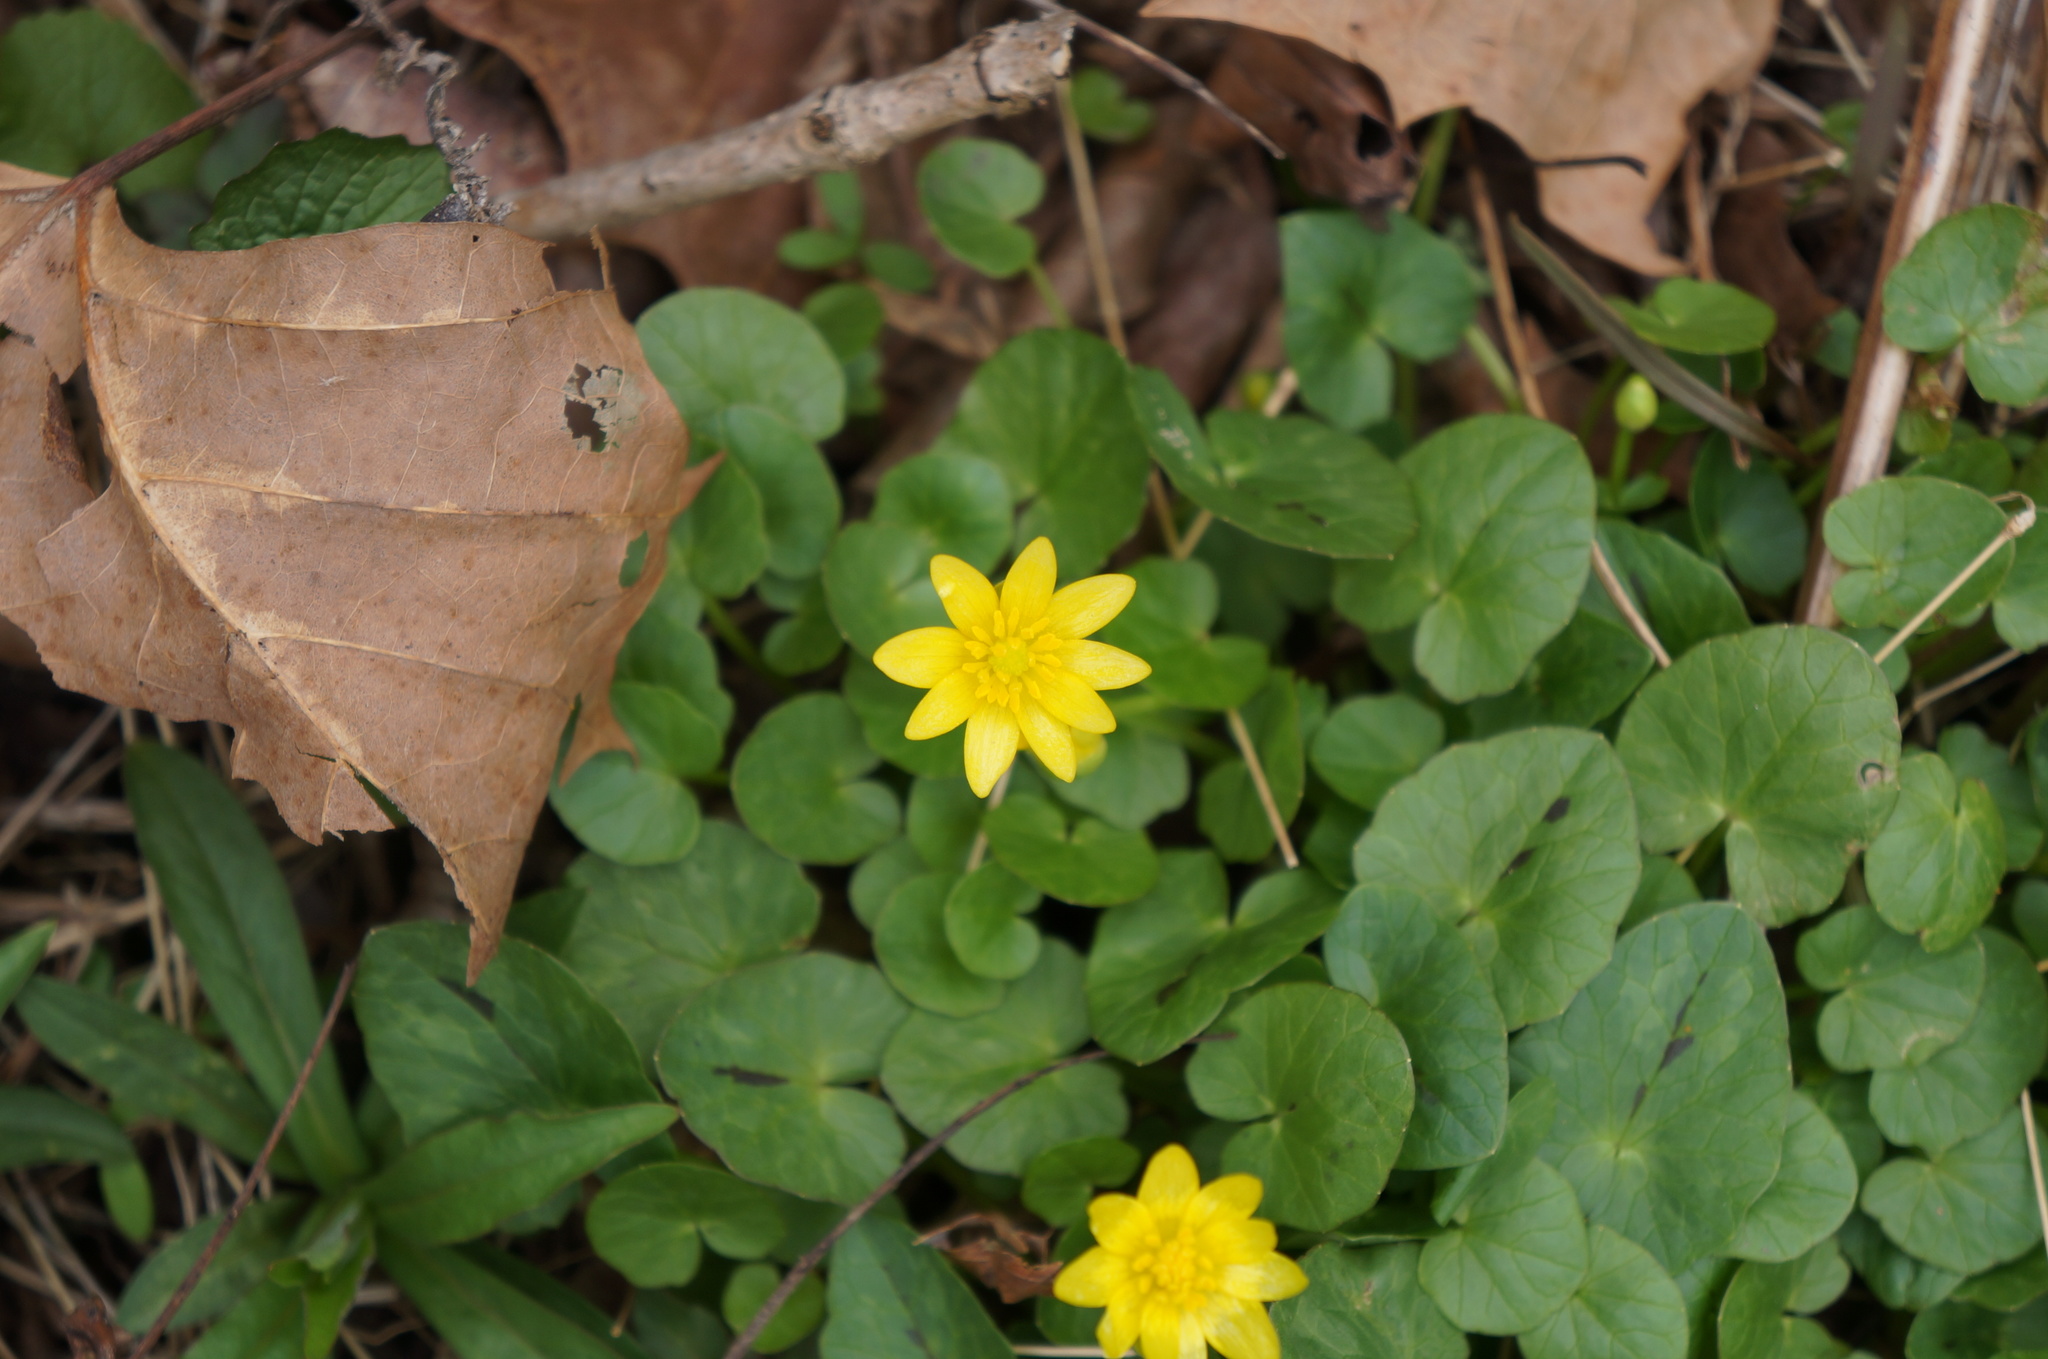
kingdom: Plantae
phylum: Tracheophyta
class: Magnoliopsida
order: Ranunculales
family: Ranunculaceae
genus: Ficaria
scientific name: Ficaria verna
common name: Lesser celandine
